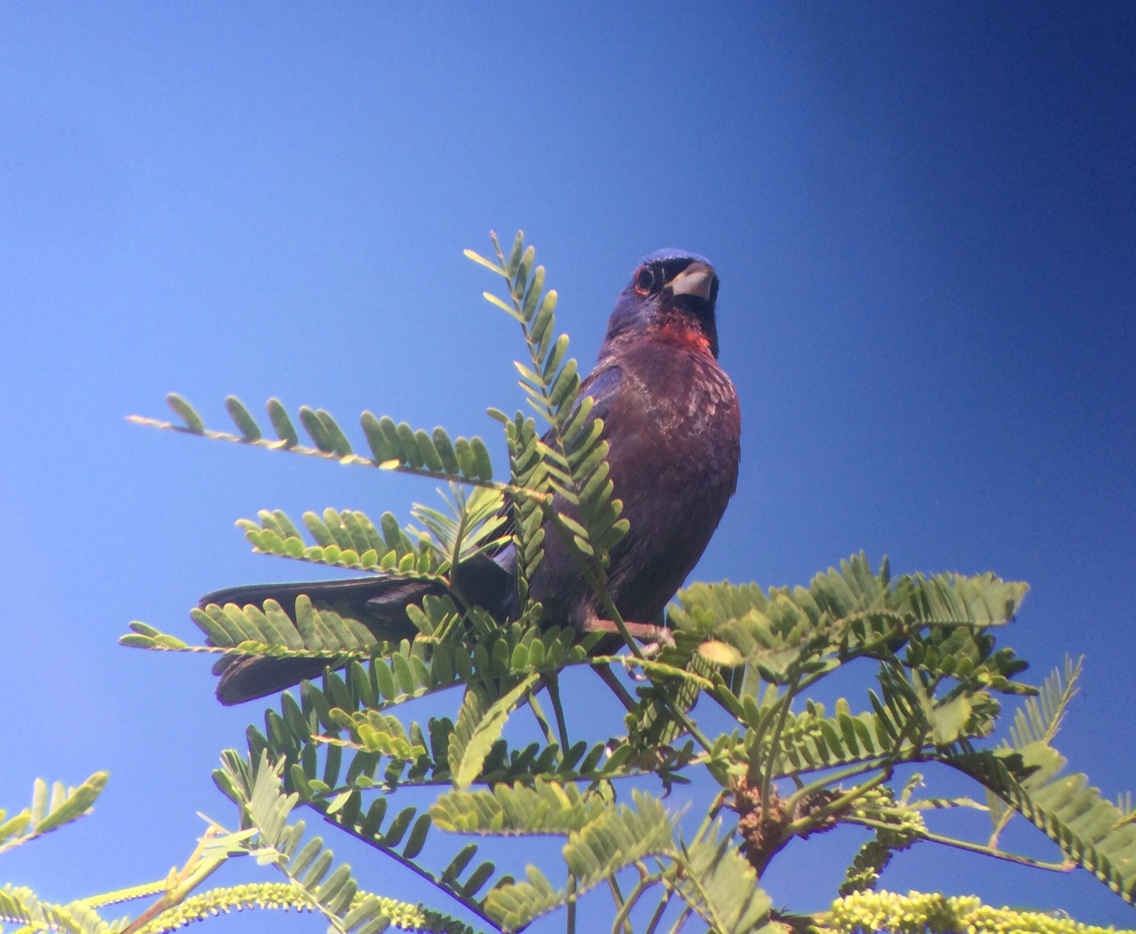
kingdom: Animalia
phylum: Chordata
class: Aves
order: Passeriformes
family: Cardinalidae
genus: Passerina
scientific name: Passerina versicolor
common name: Varied bunting
